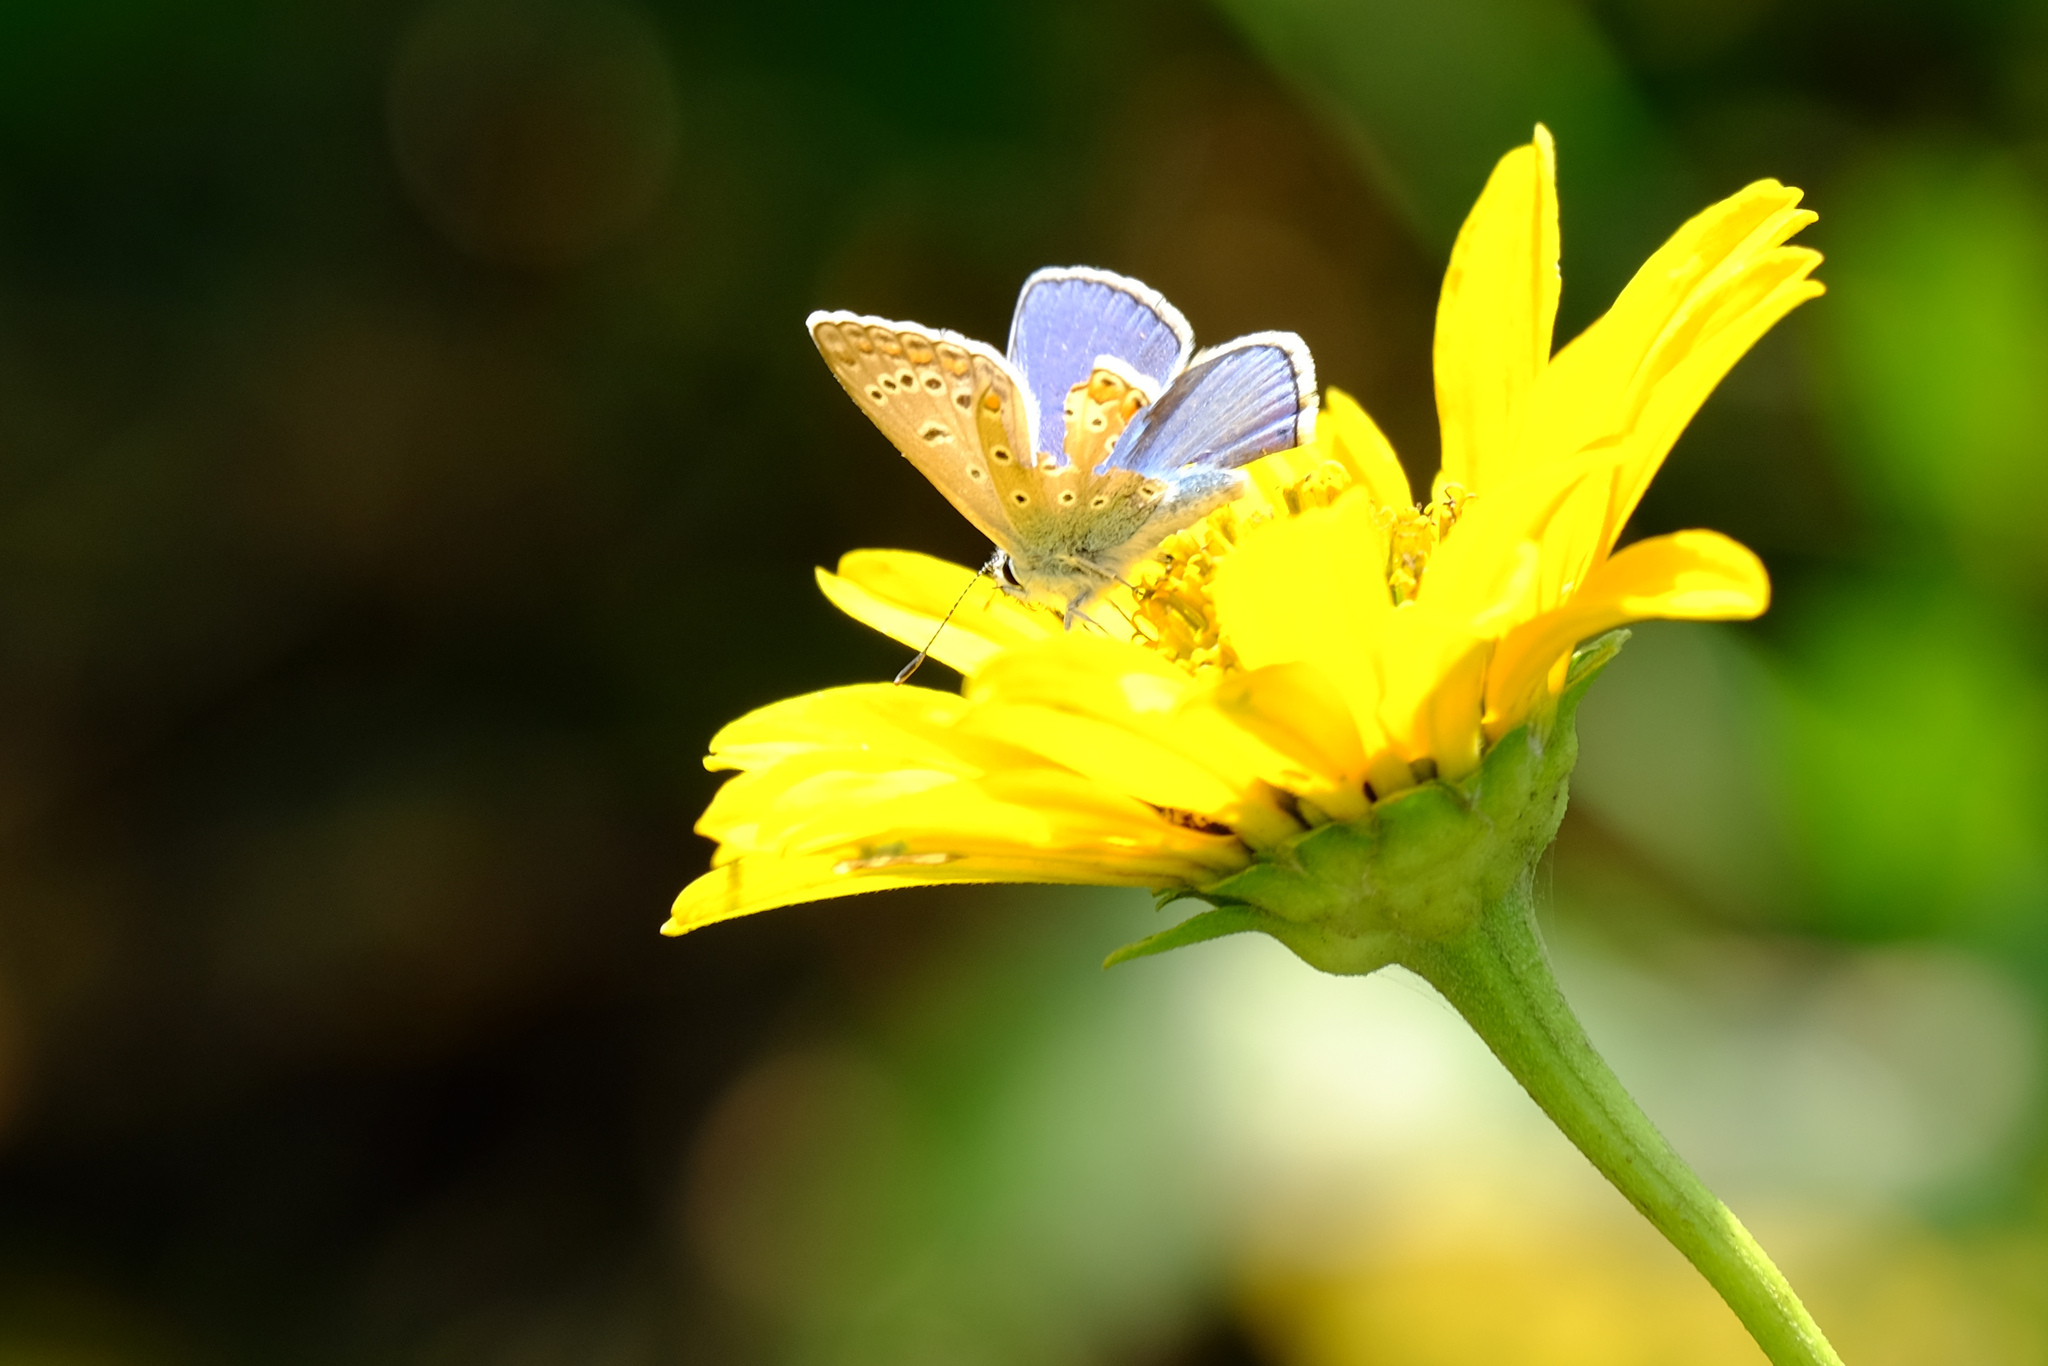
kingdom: Animalia
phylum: Arthropoda
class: Insecta
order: Lepidoptera
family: Lycaenidae
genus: Polyommatus
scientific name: Polyommatus icarus
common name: Common blue
